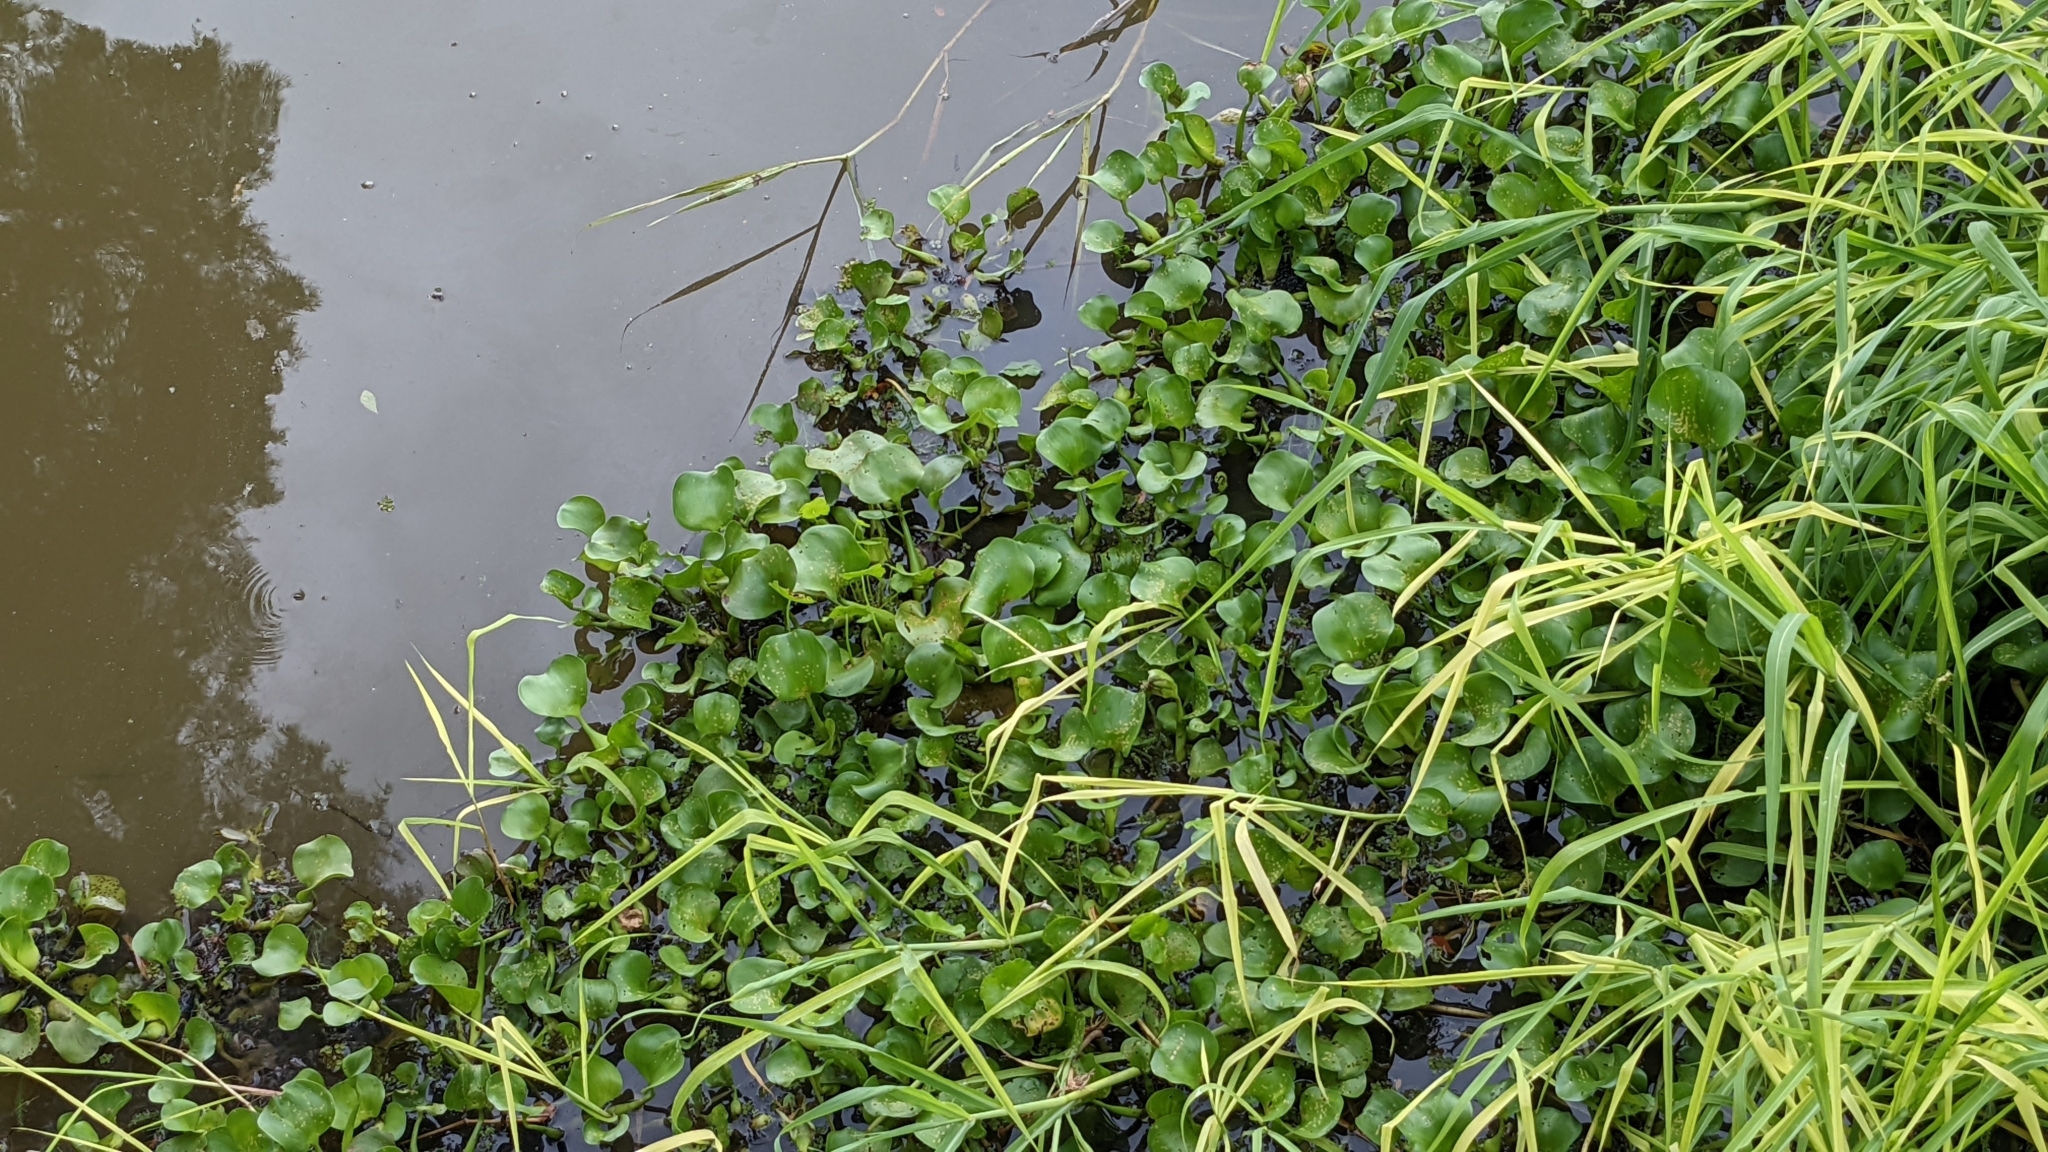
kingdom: Plantae
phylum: Tracheophyta
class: Liliopsida
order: Commelinales
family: Pontederiaceae
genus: Pontederia
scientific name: Pontederia crassipes
